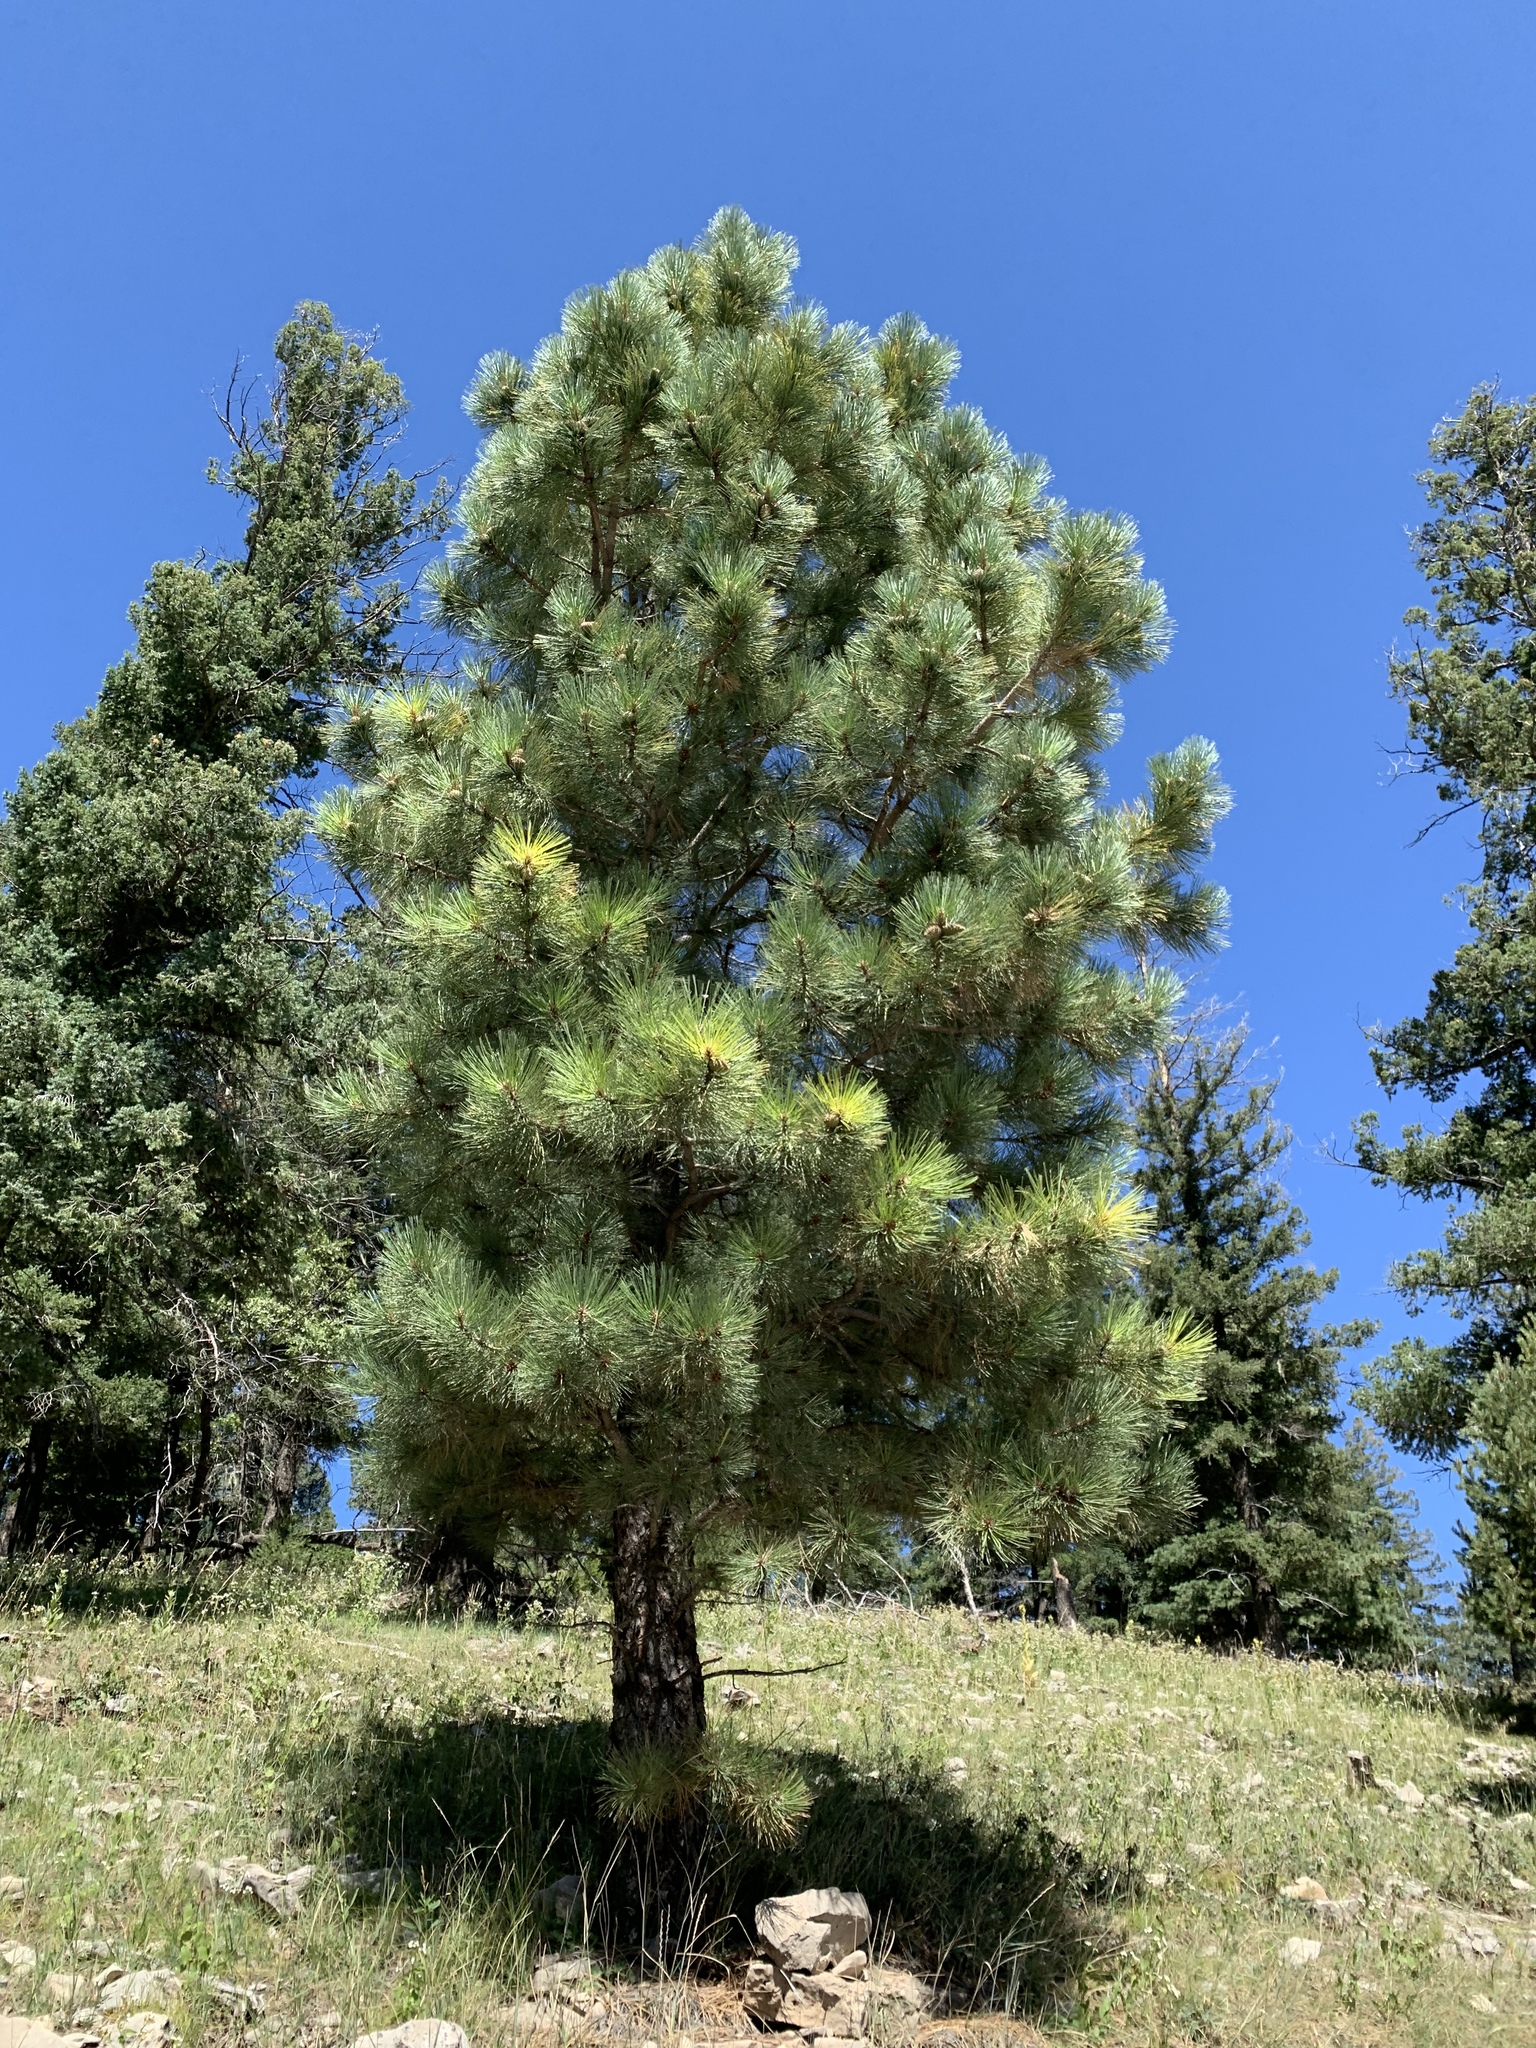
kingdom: Plantae
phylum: Tracheophyta
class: Pinopsida
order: Pinales
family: Pinaceae
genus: Pinus
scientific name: Pinus ponderosa
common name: Western yellow-pine
